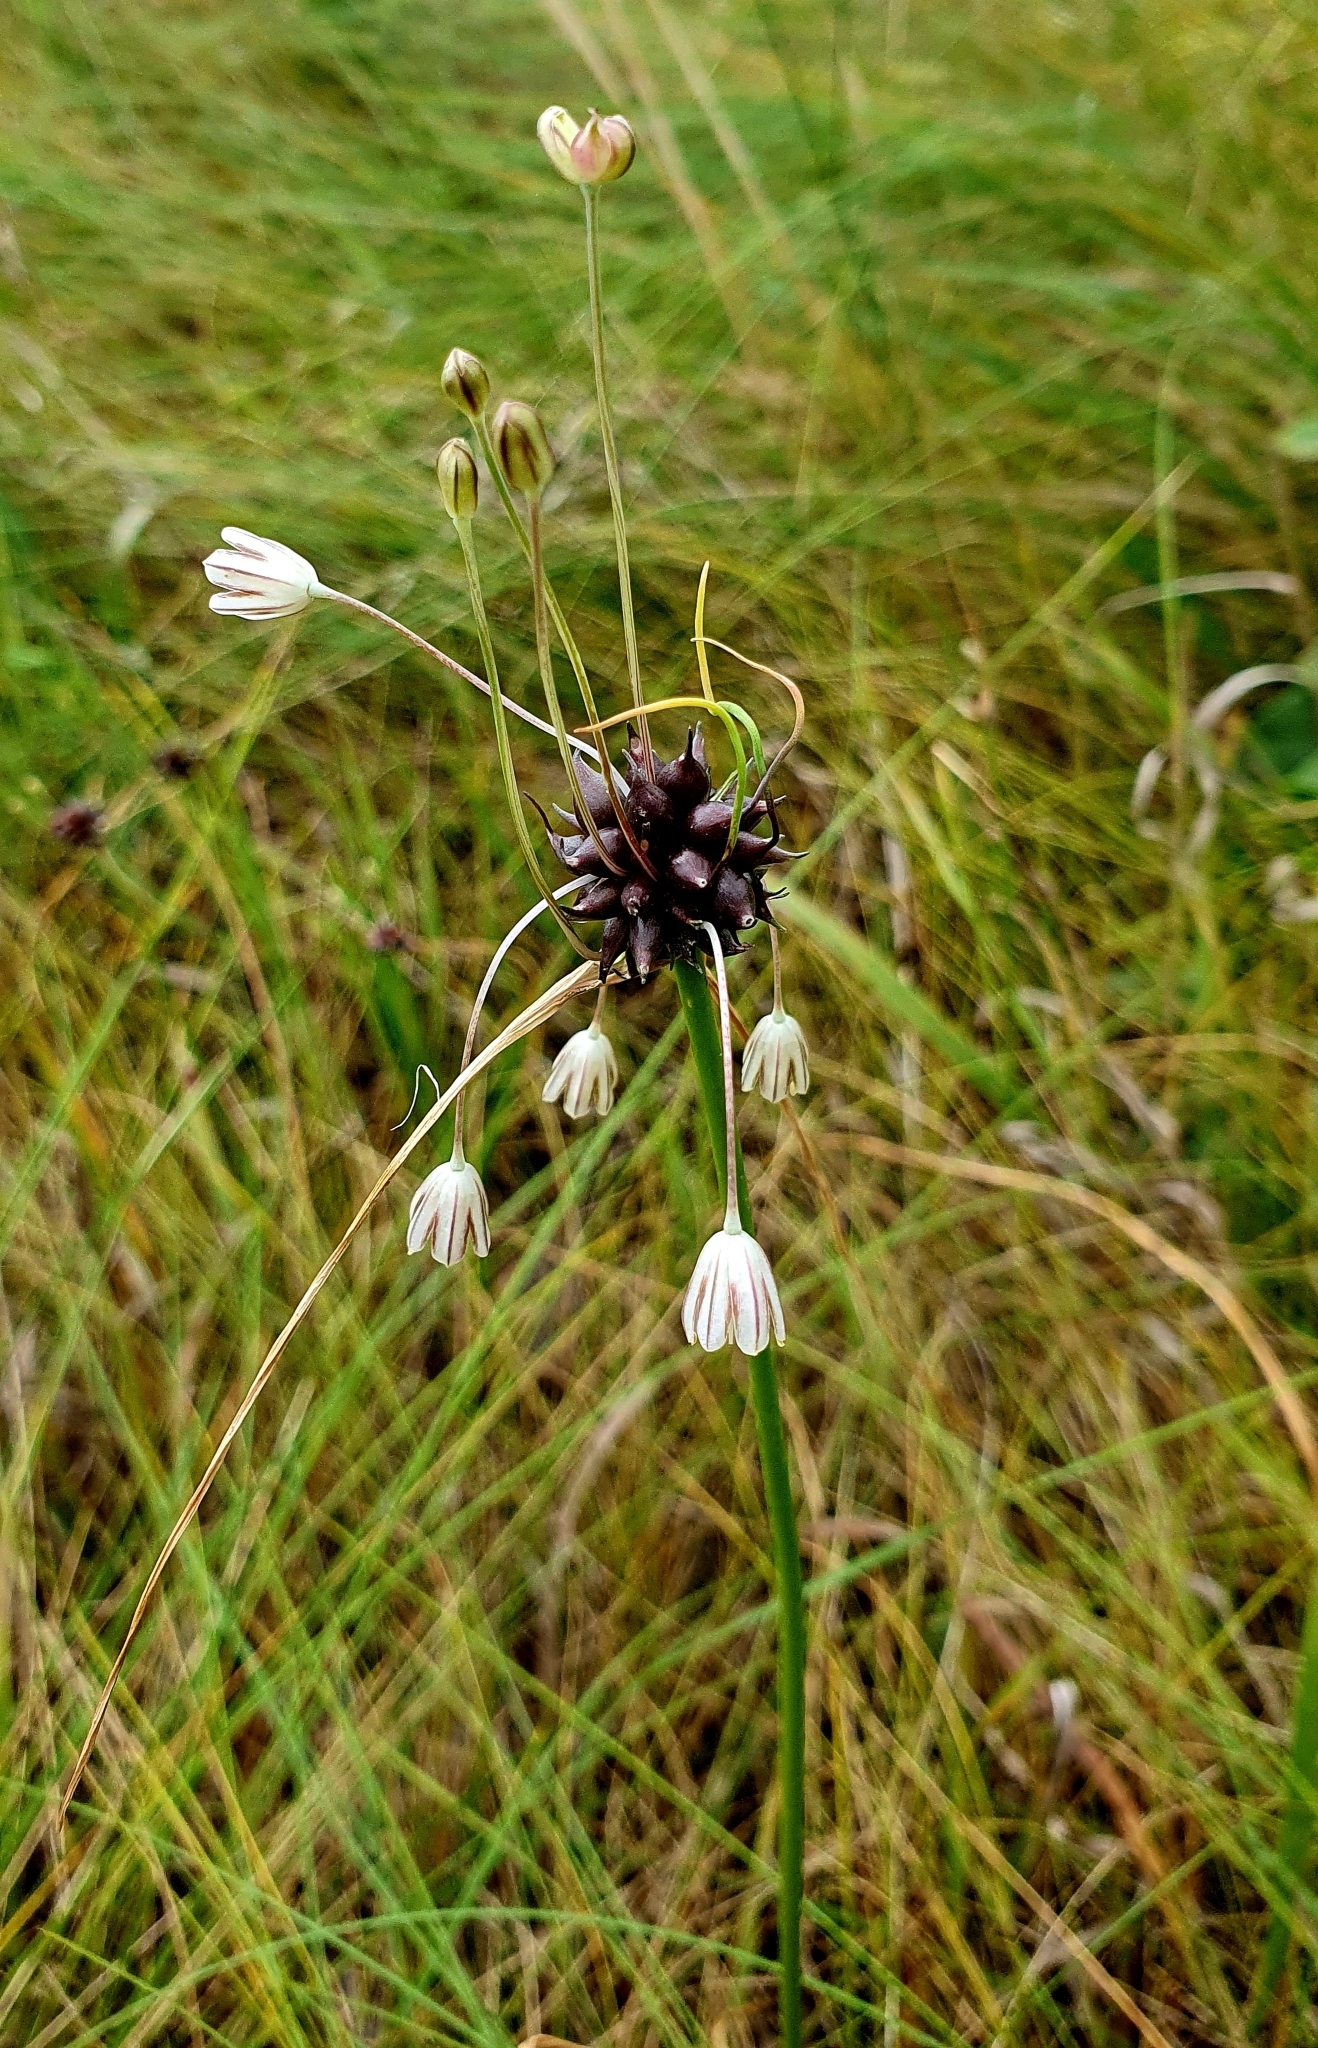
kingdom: Plantae
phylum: Tracheophyta
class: Liliopsida
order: Asparagales
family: Amaryllidaceae
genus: Allium
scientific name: Allium oleraceum
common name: Field garlic
